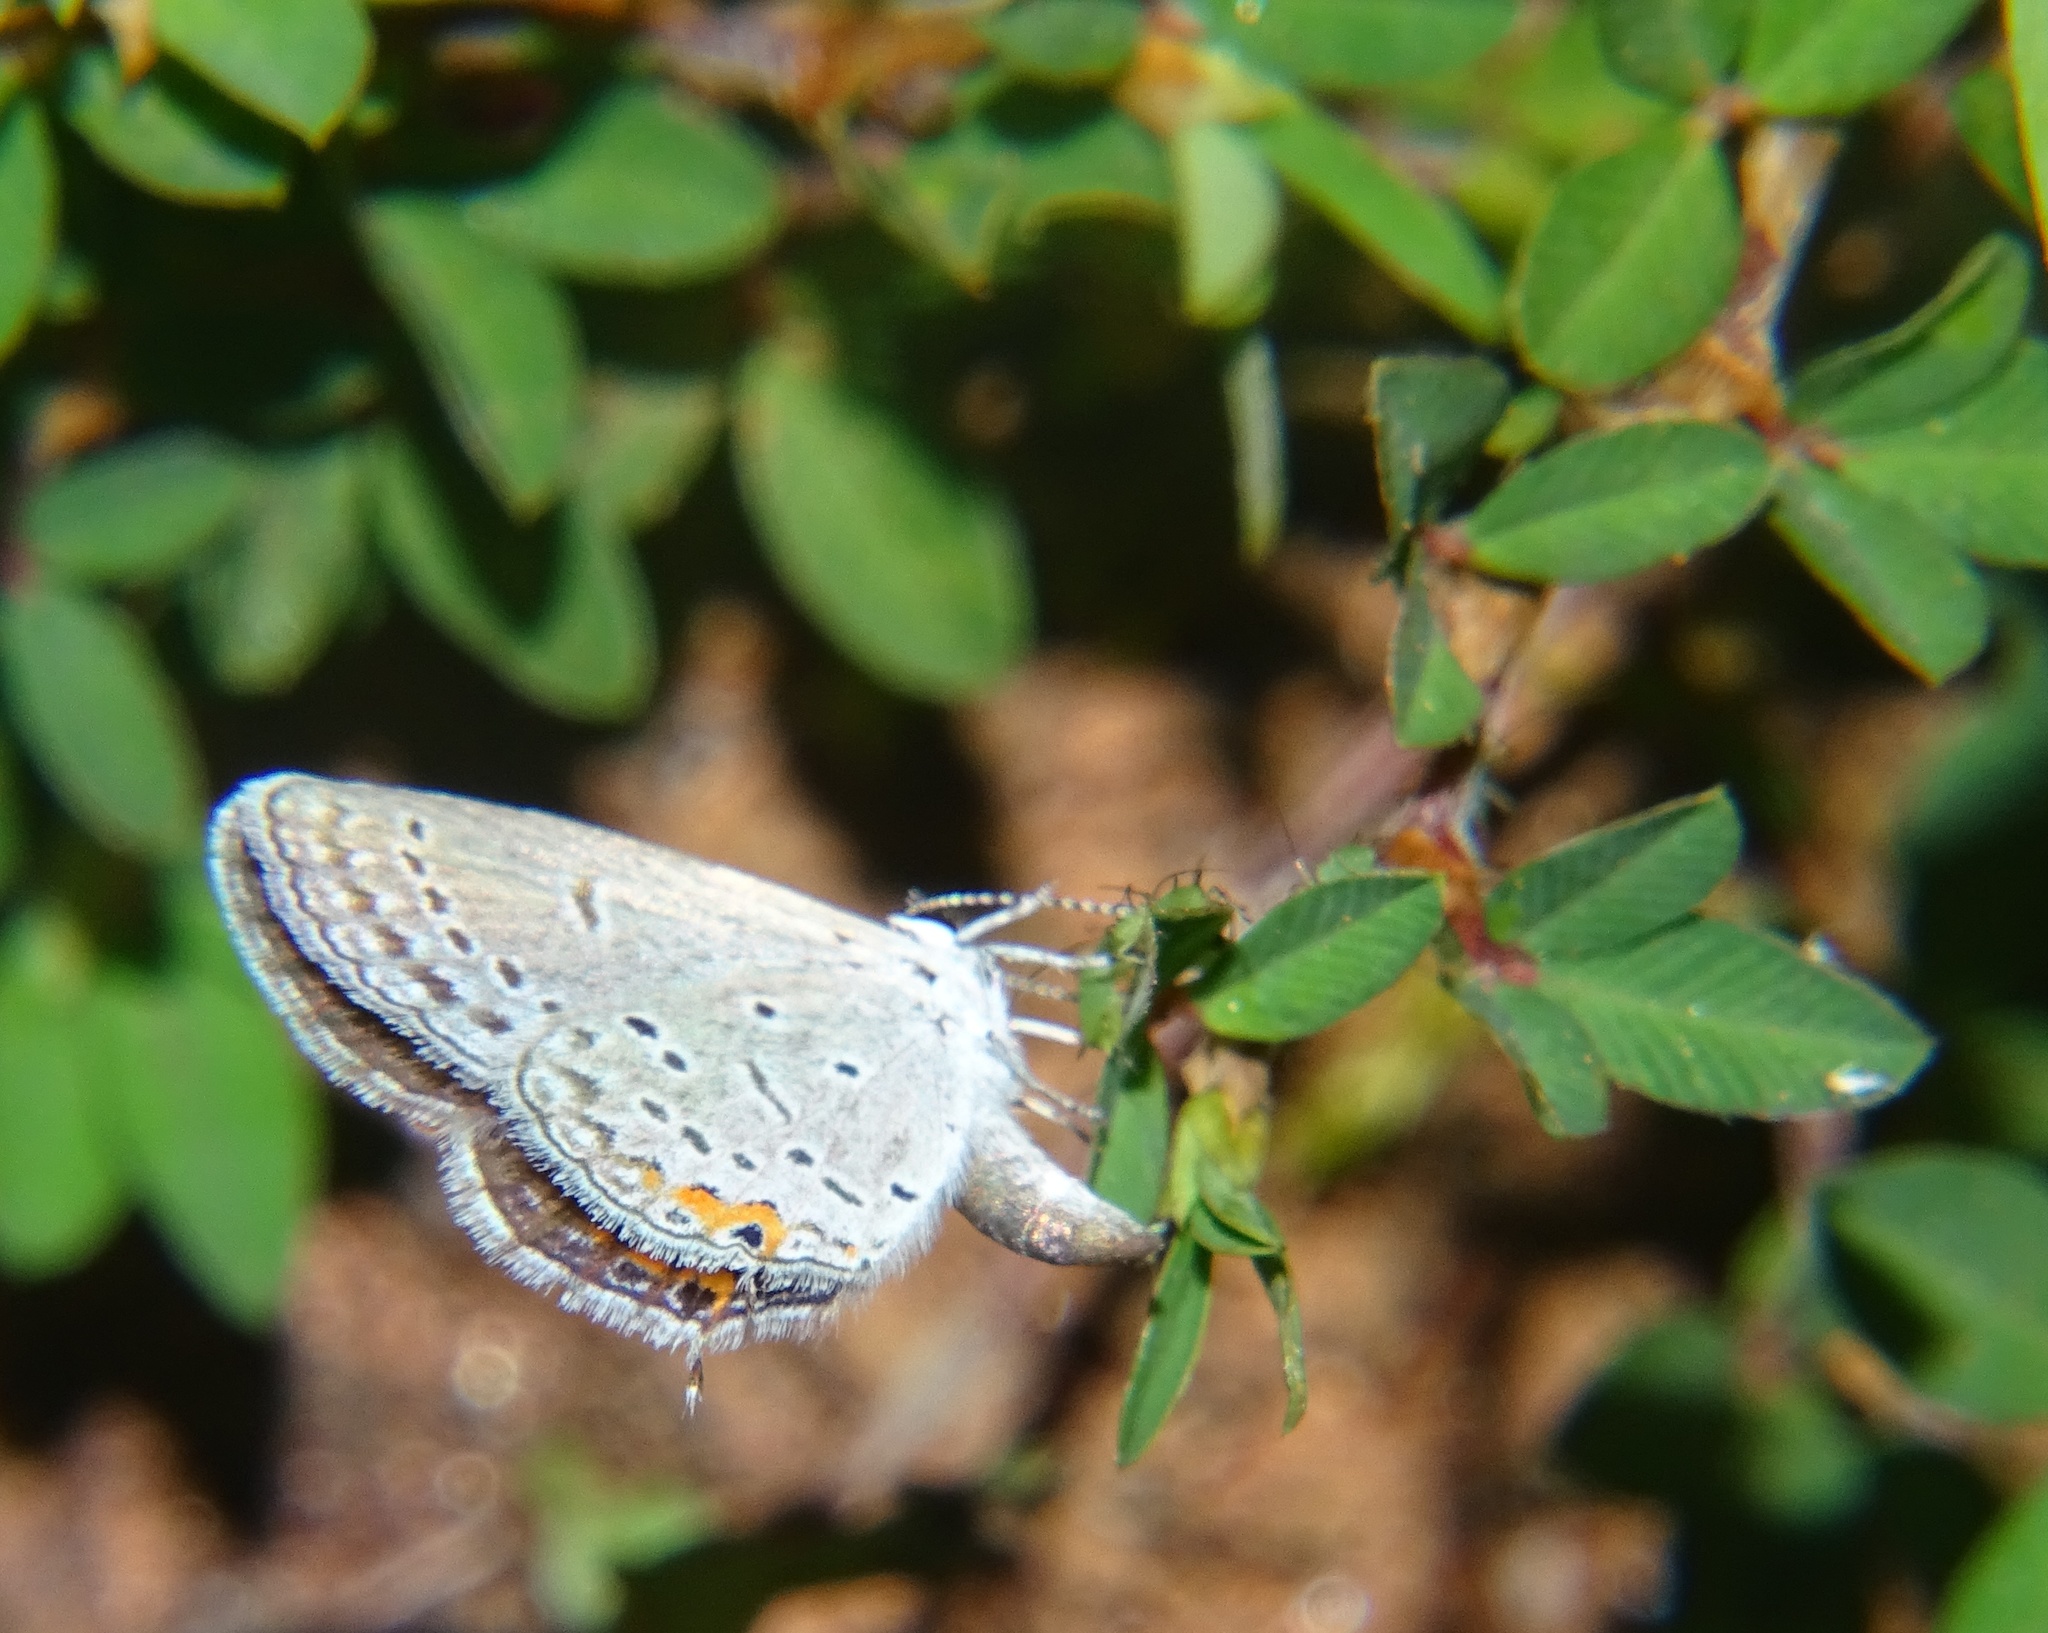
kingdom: Animalia
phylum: Arthropoda
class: Insecta
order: Lepidoptera
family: Lycaenidae
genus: Elkalyce
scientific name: Elkalyce comyntas
